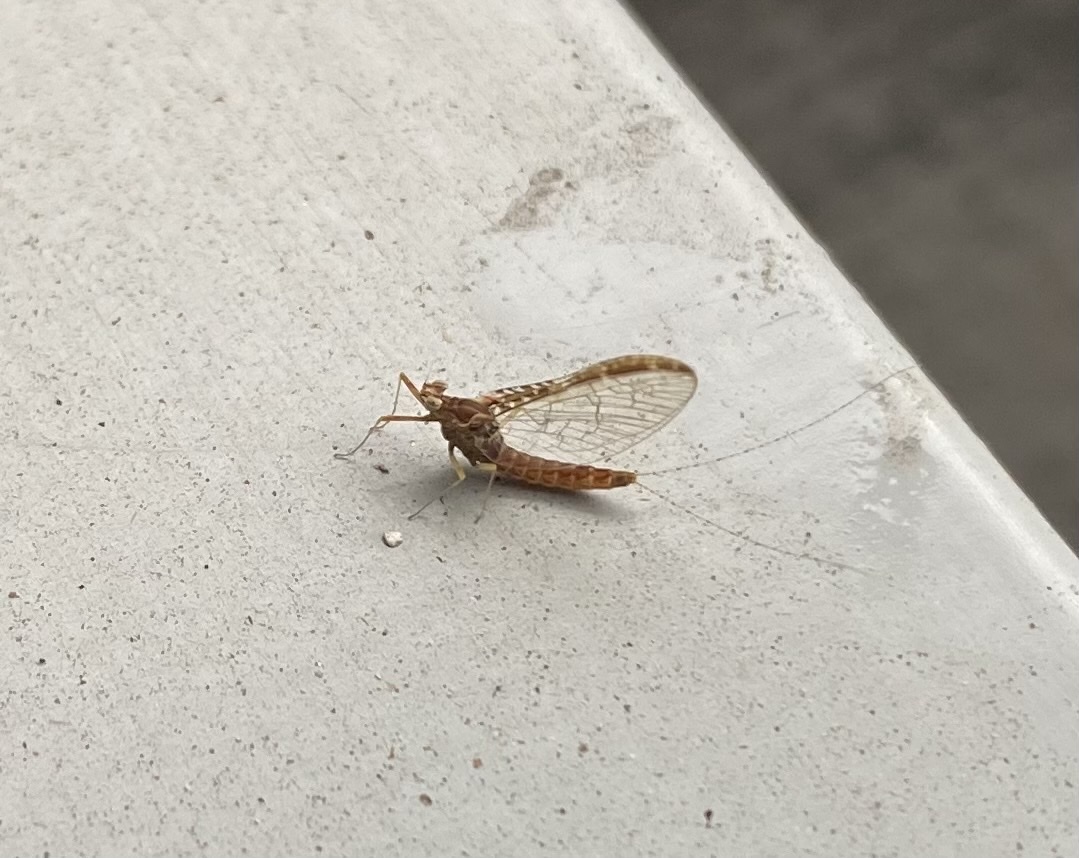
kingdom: Animalia
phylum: Arthropoda
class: Insecta
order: Ephemeroptera
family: Baetidae
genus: Cloeon
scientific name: Cloeon dipterum
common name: Pond olive
